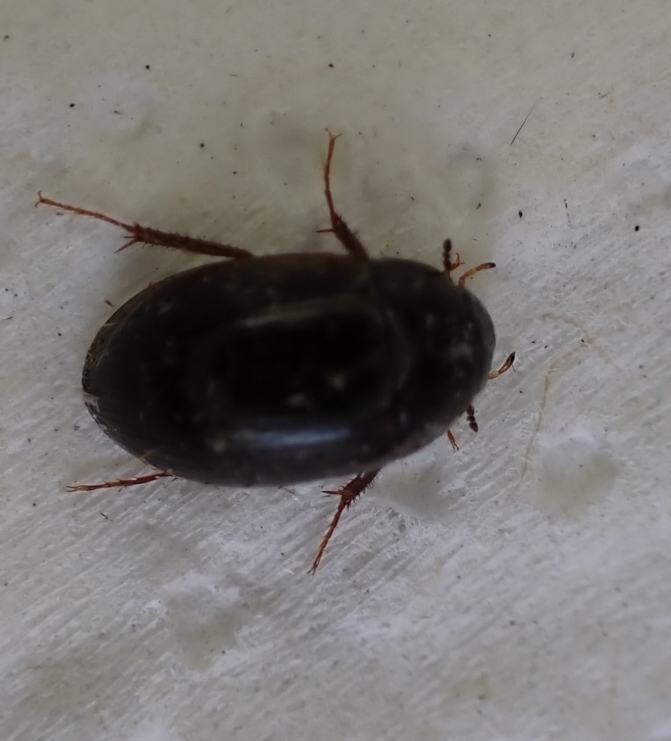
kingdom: Animalia
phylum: Arthropoda
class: Insecta
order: Coleoptera
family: Hydrophilidae
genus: Hydrobius
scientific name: Hydrobius
